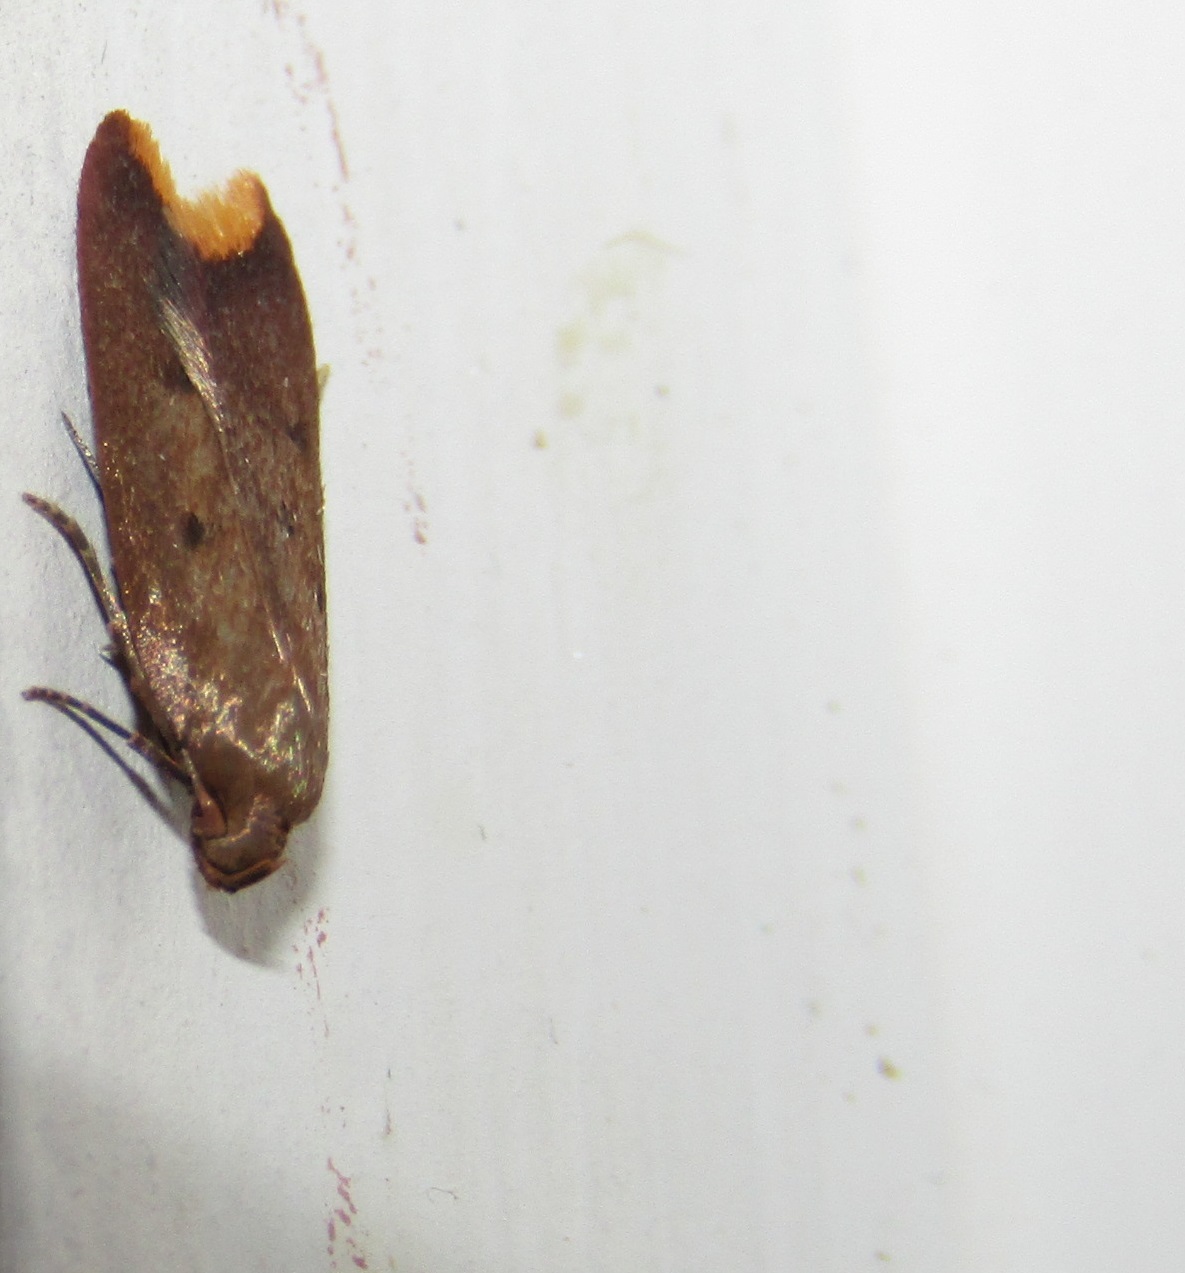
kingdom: Animalia
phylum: Arthropoda
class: Insecta
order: Lepidoptera
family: Oecophoridae
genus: Tachystola
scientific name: Tachystola acroxantha
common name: Ruddy streak
